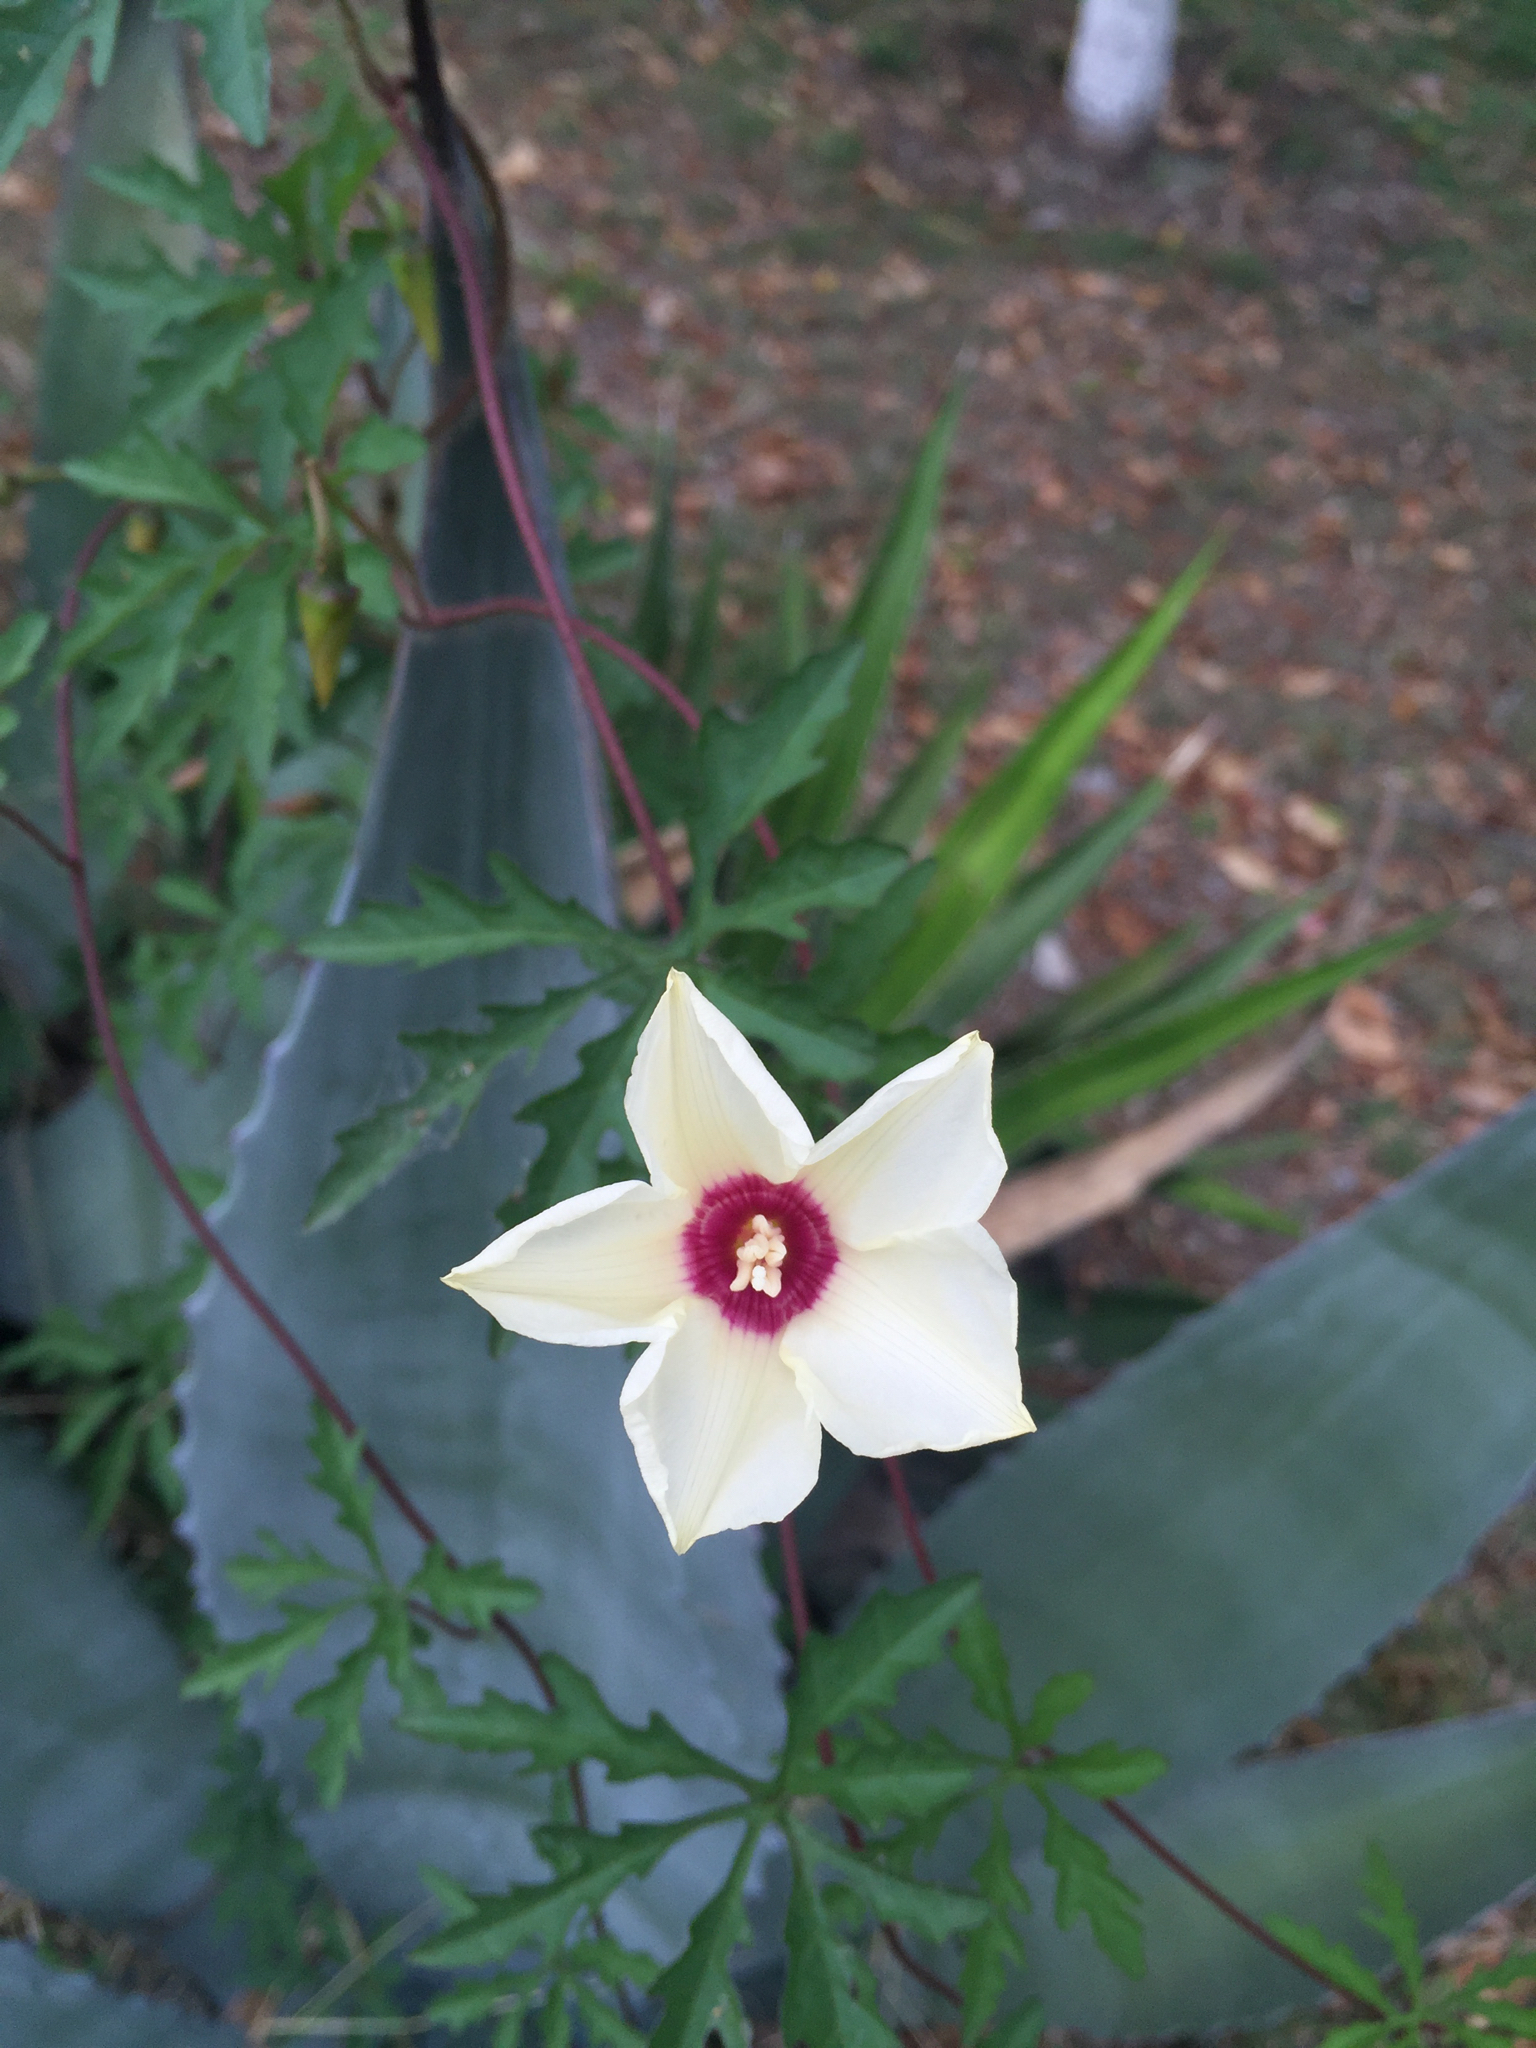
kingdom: Plantae
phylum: Tracheophyta
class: Magnoliopsida
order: Solanales
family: Convolvulaceae
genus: Distimake
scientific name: Distimake dissectus
